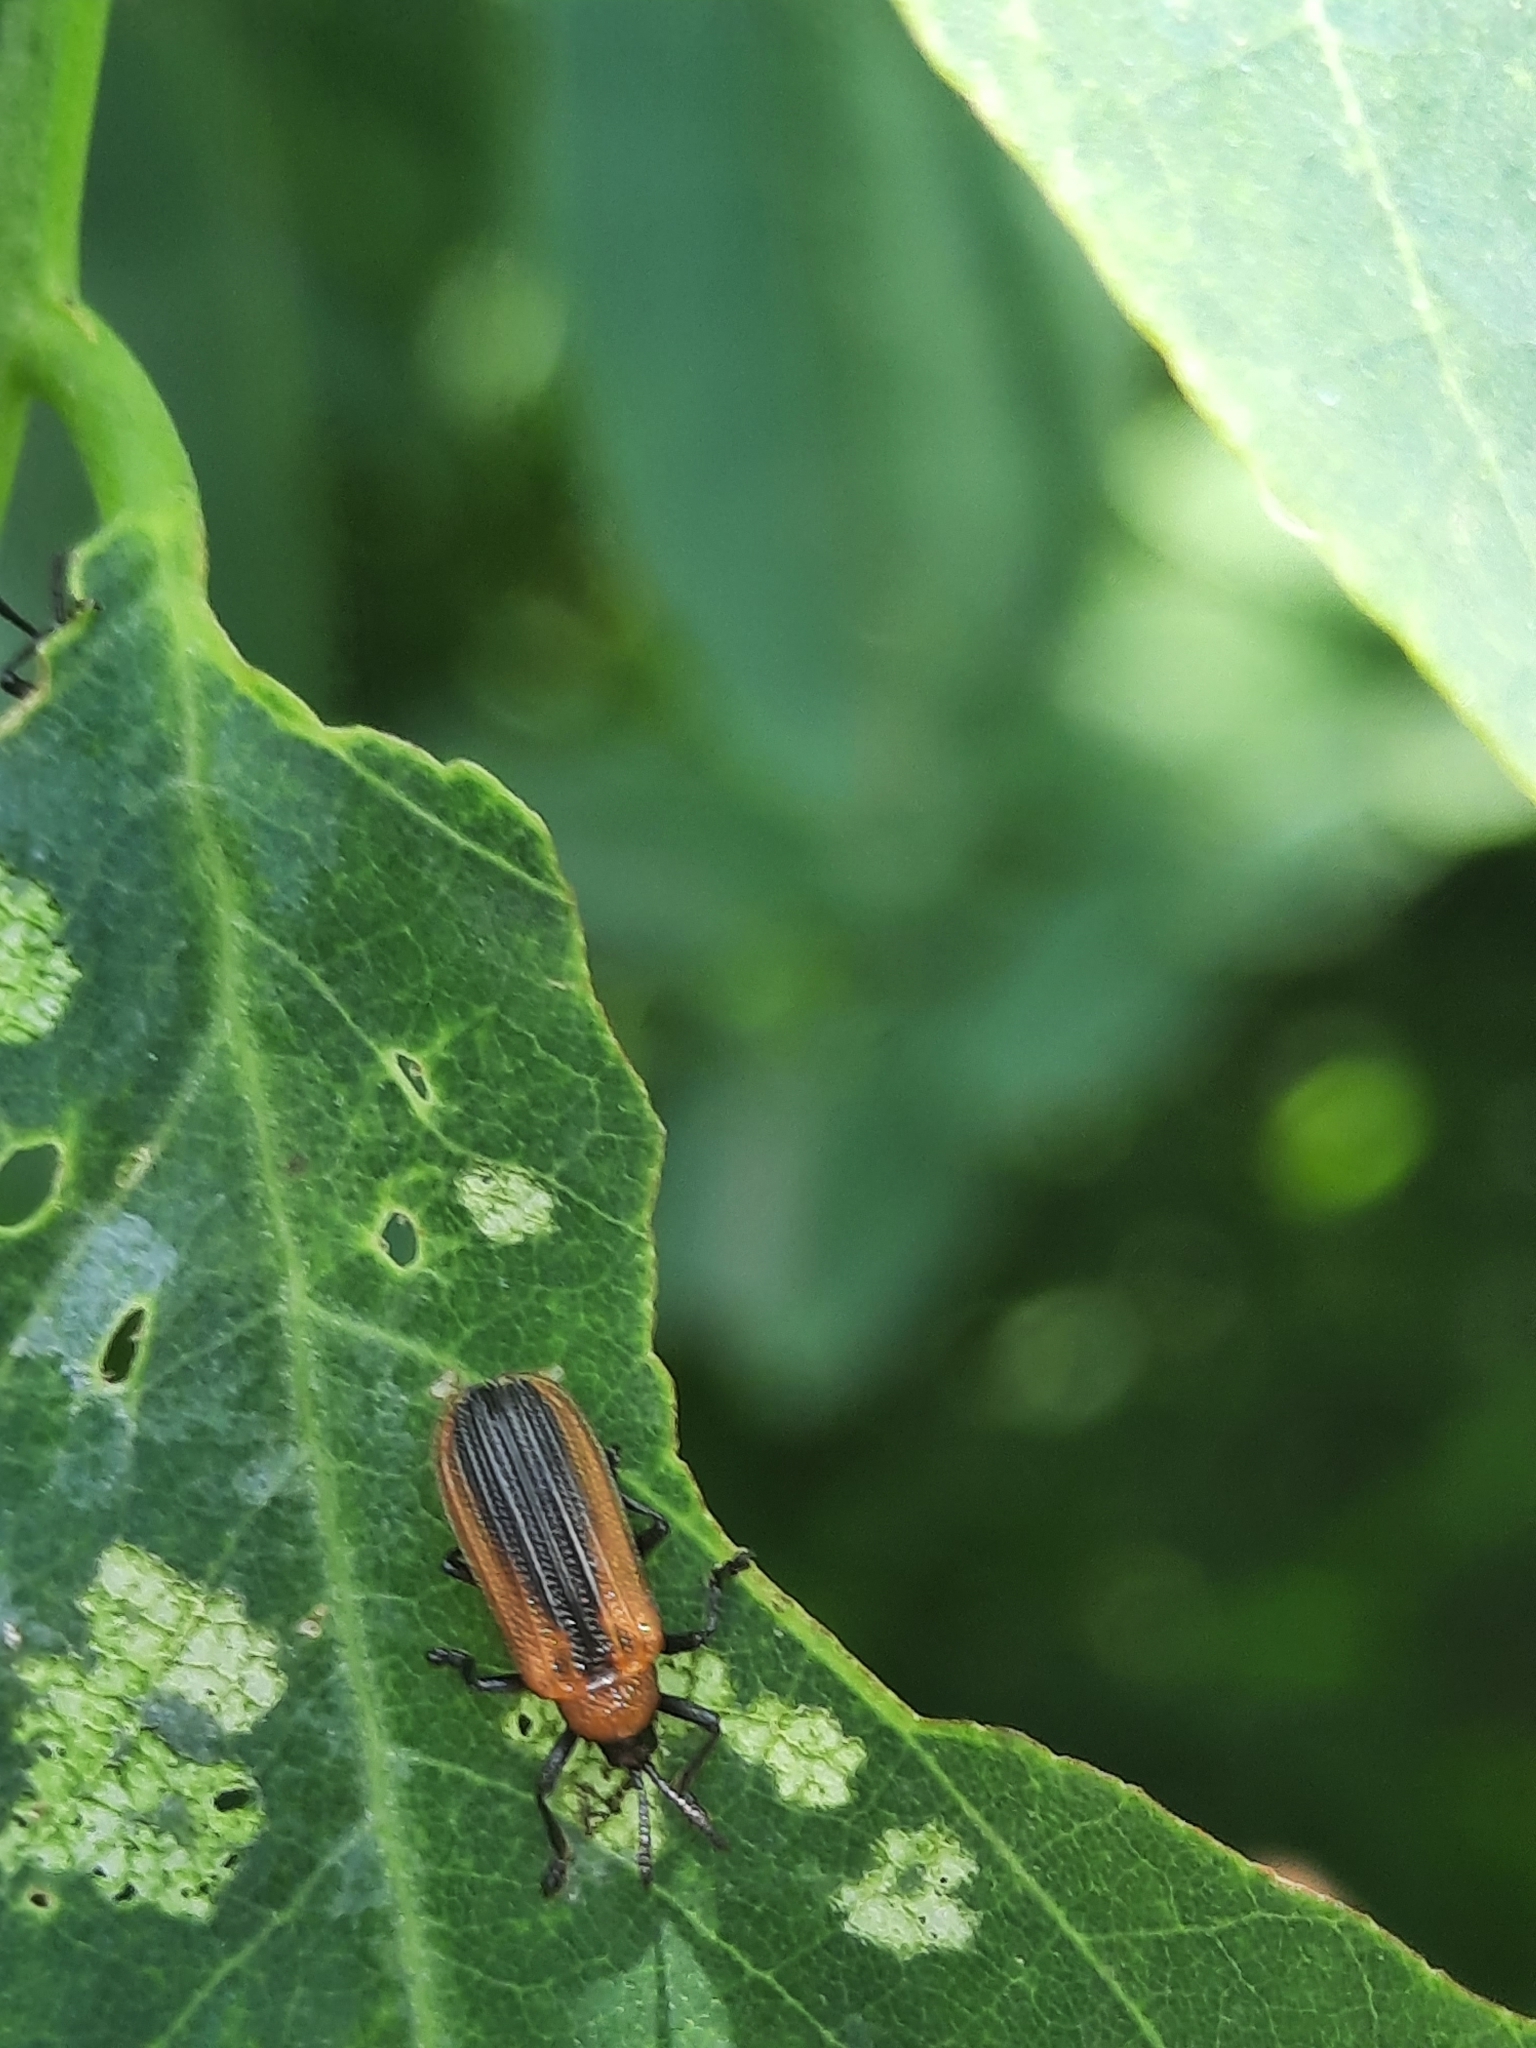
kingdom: Animalia
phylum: Arthropoda
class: Insecta
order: Coleoptera
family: Chrysomelidae
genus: Odontota
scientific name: Odontota dorsalis
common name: Locust leaf-miner beetle
